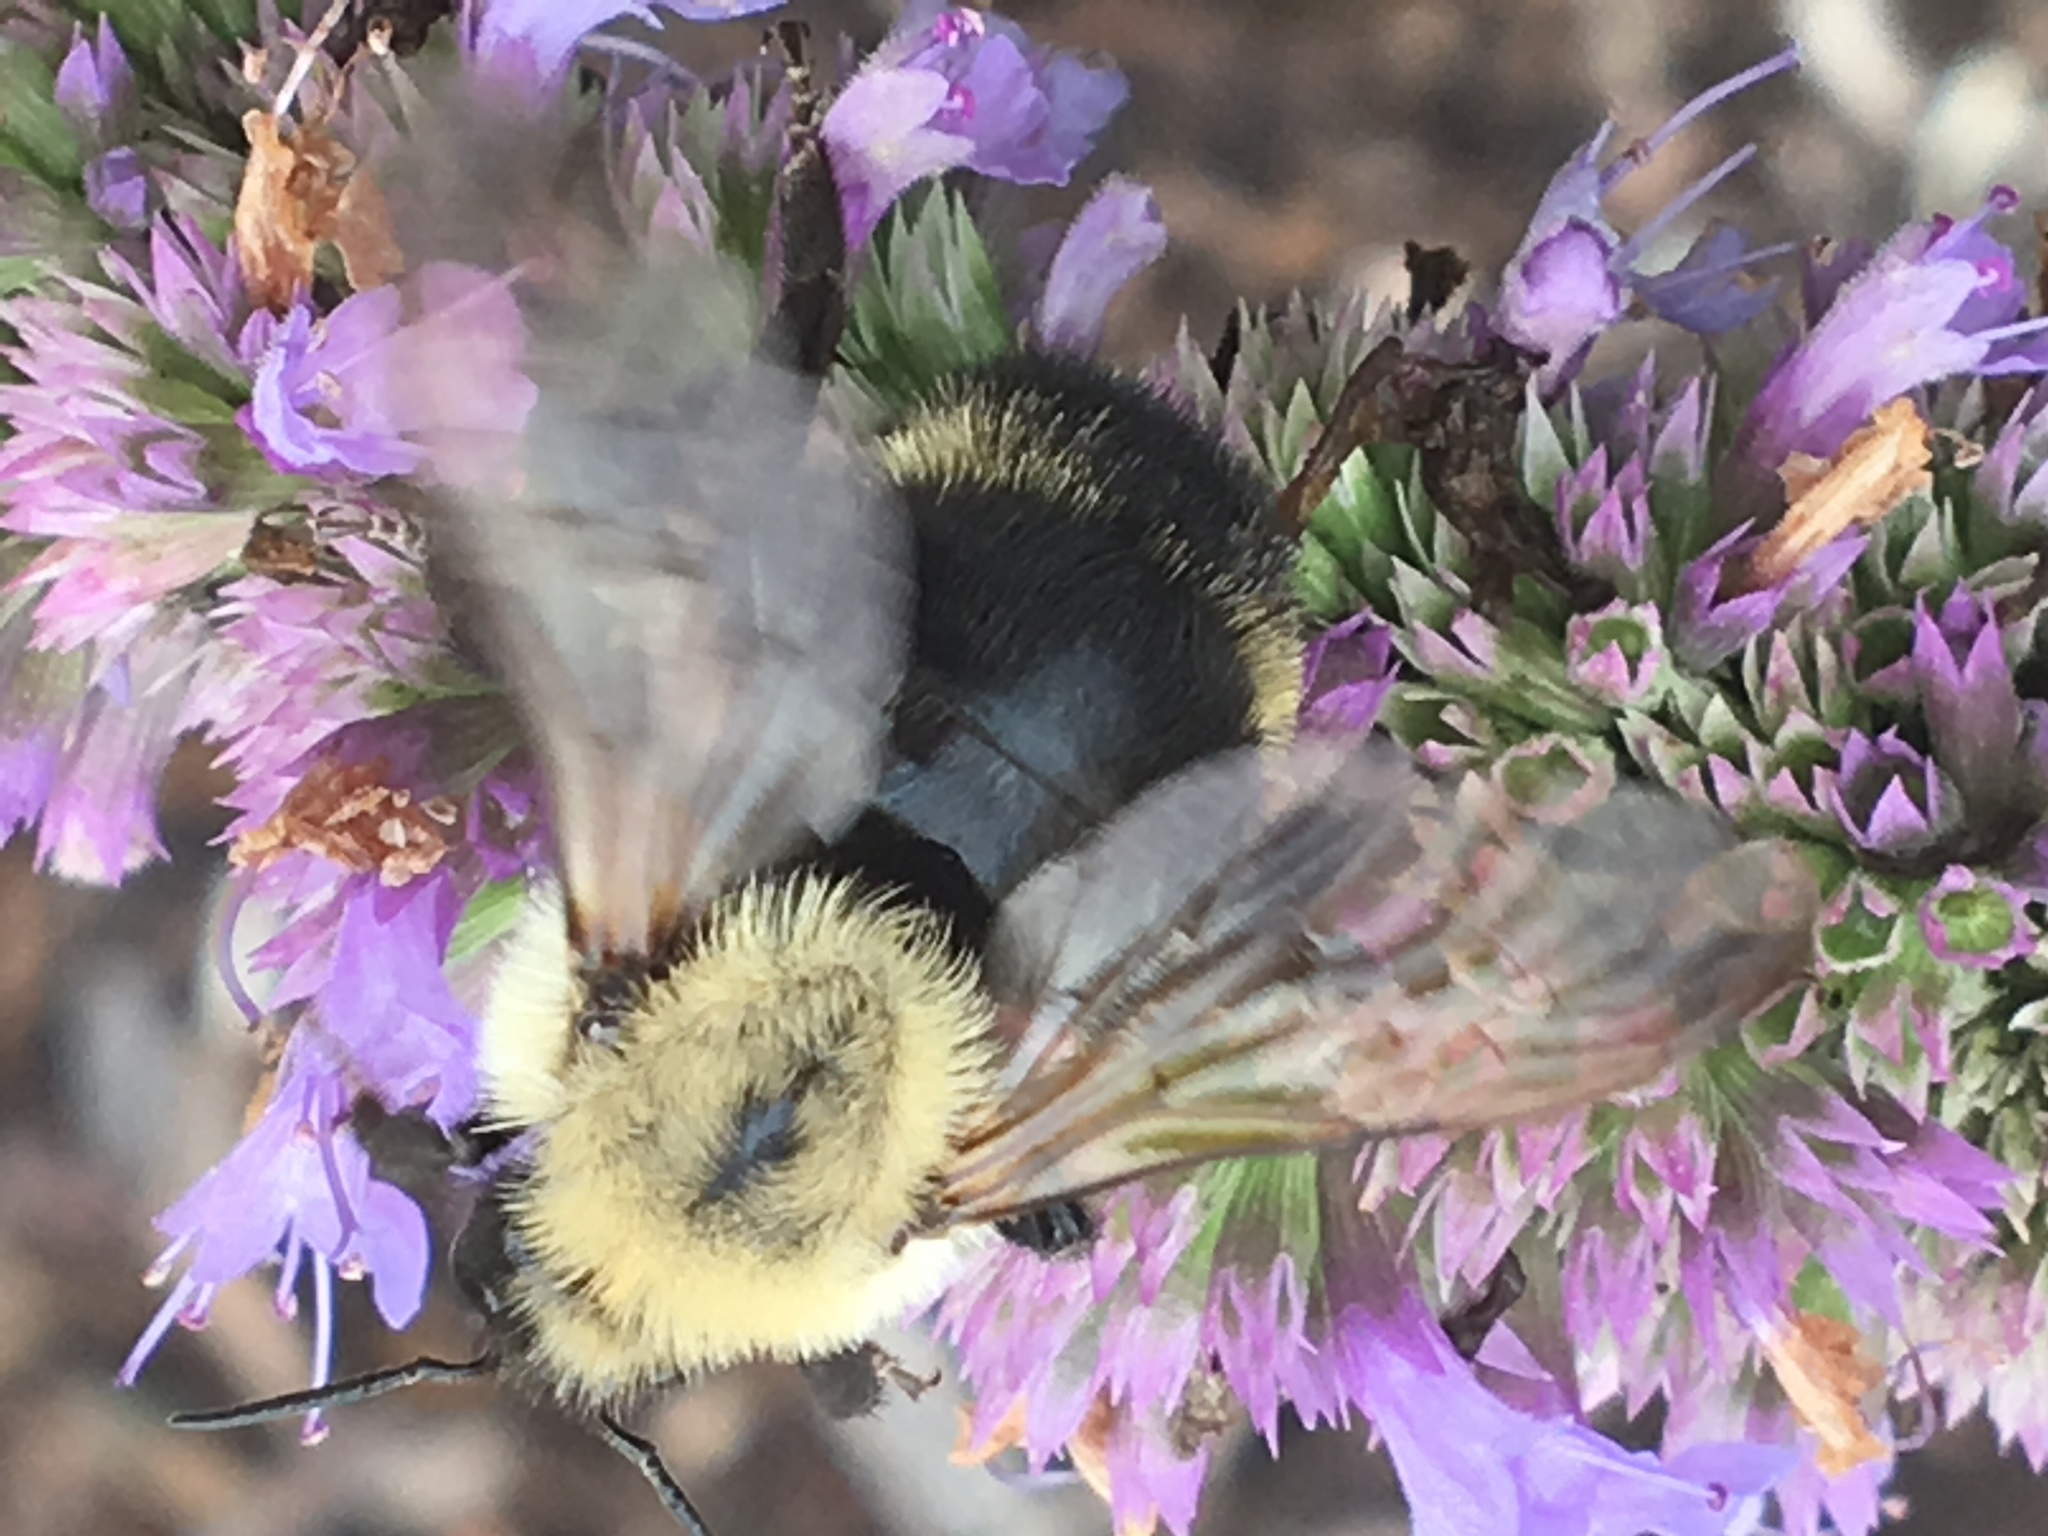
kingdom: Animalia
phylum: Arthropoda
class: Insecta
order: Hymenoptera
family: Apidae
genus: Bombus
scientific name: Bombus citrinus
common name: Lemon cuckoo bumble bee
